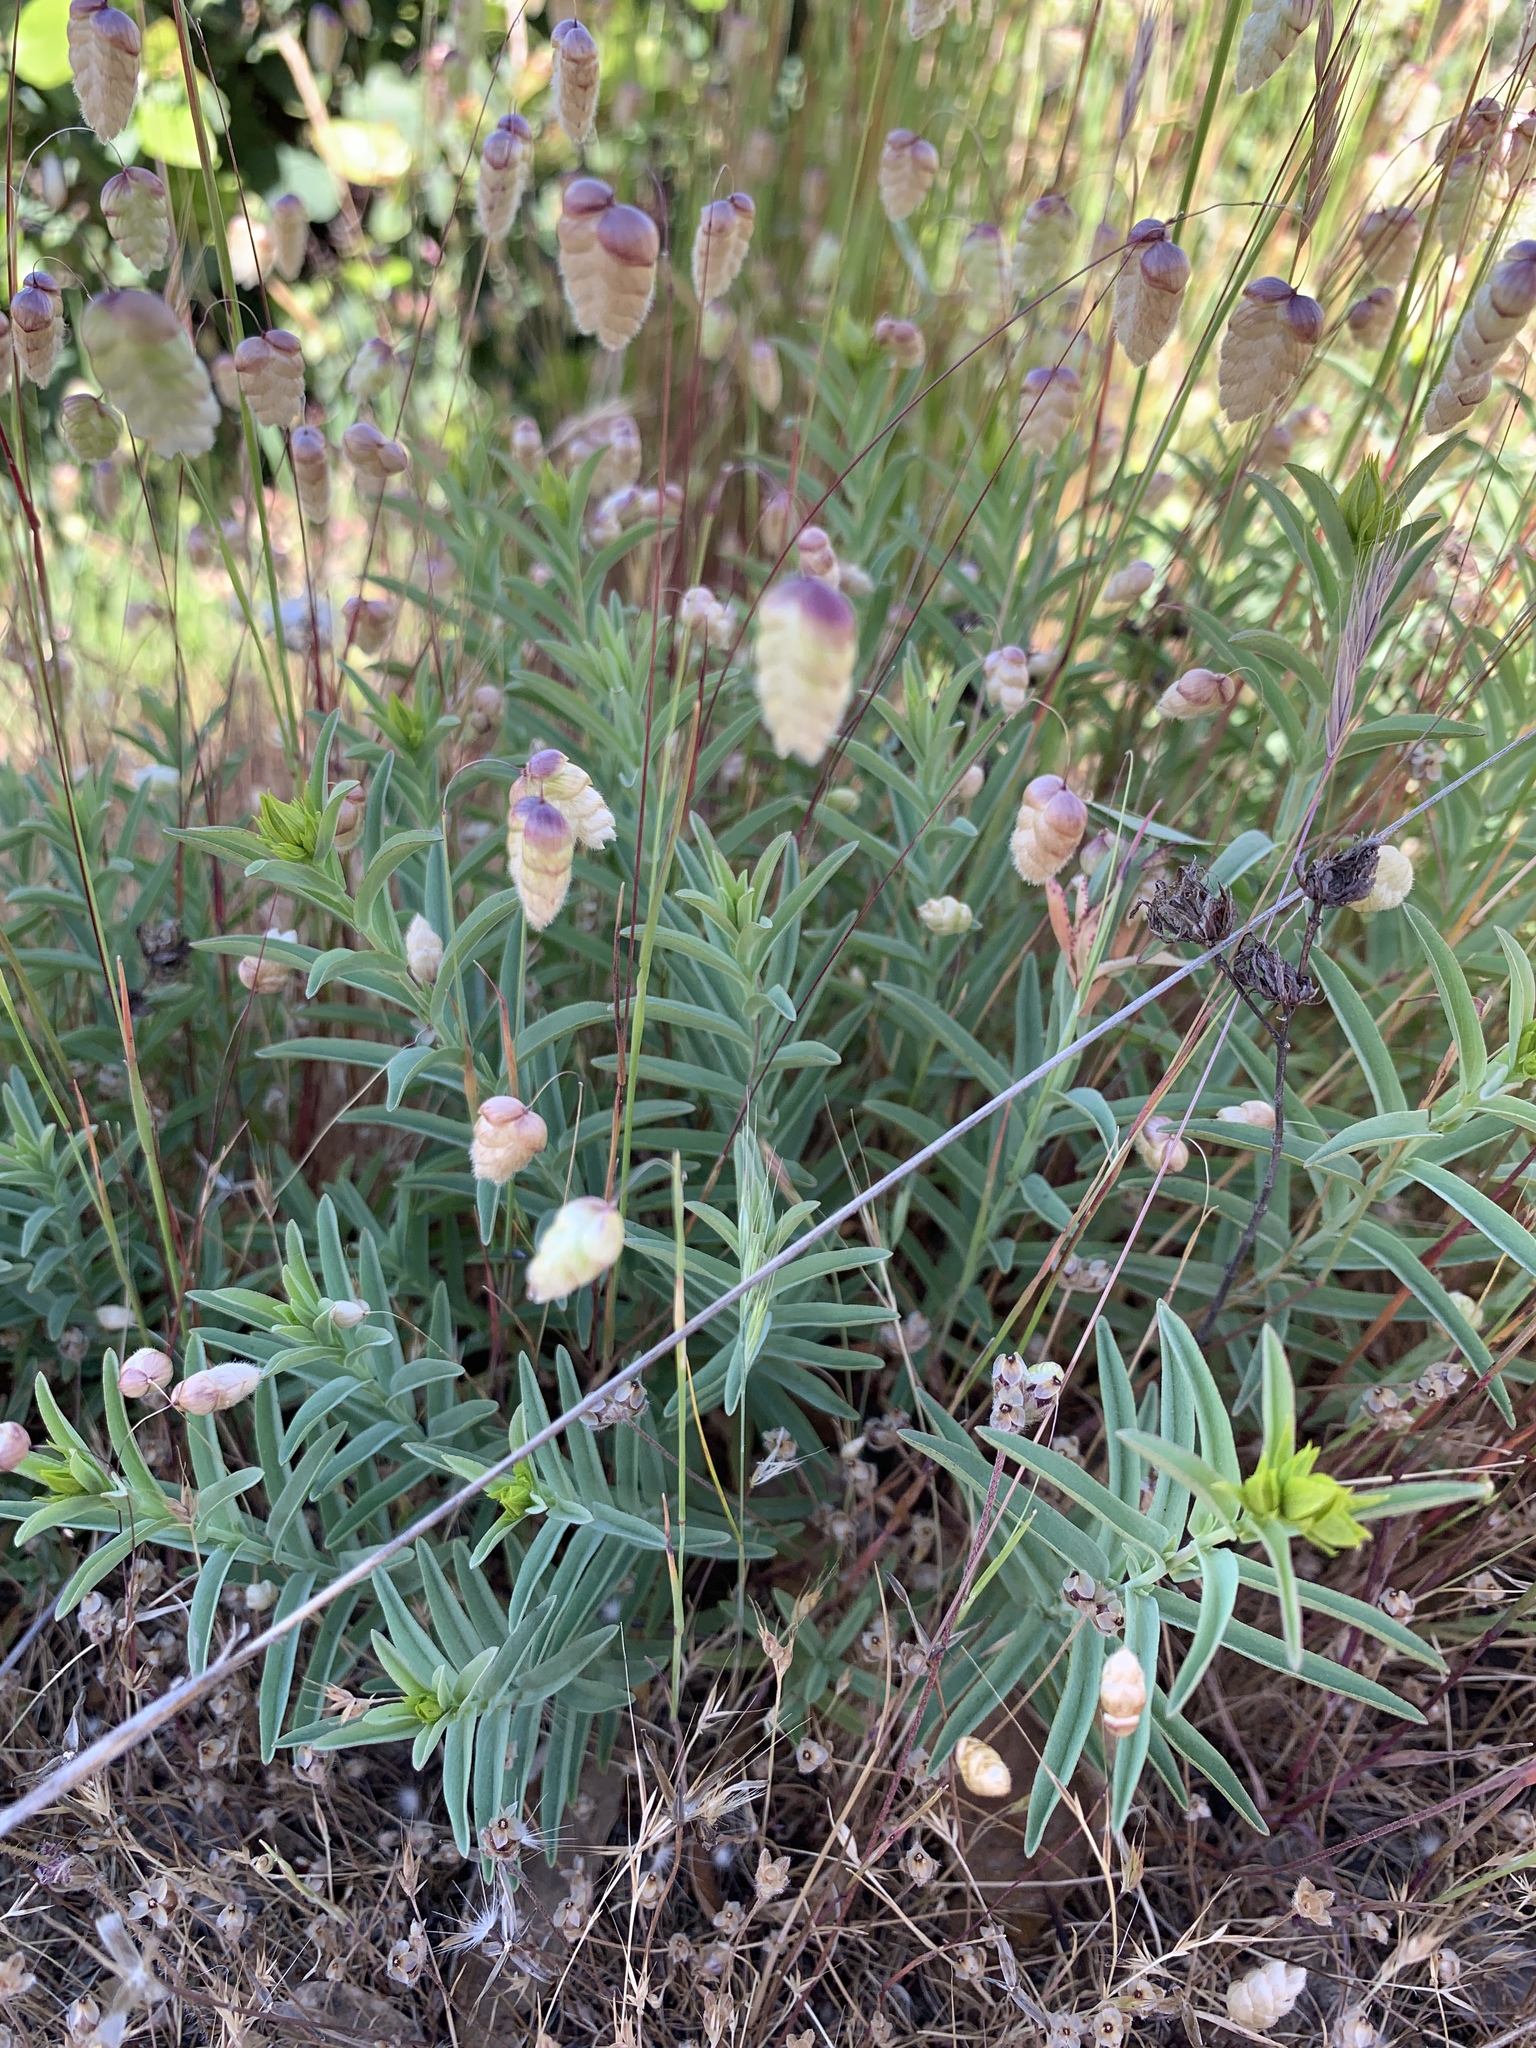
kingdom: Plantae
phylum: Tracheophyta
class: Magnoliopsida
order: Malpighiales
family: Hypericaceae
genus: Hypericum
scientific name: Hypericum concinnum
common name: Gold-wire
